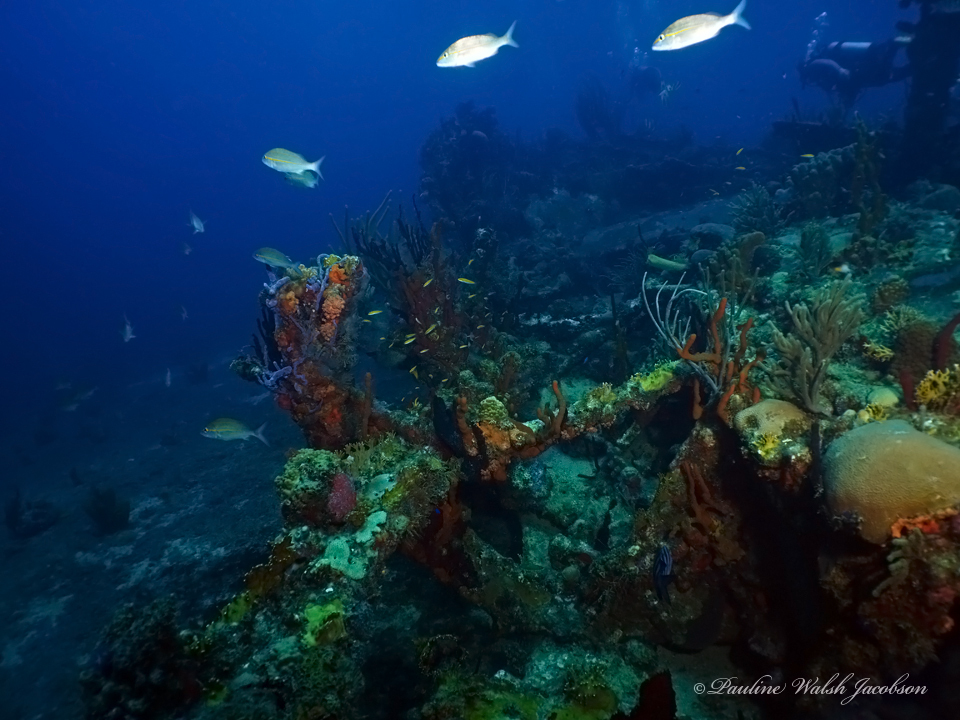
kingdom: Animalia
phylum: Chordata
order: Perciformes
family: Haemulidae
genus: Haemulon
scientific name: Haemulon aurolineatum
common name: Tomtate
